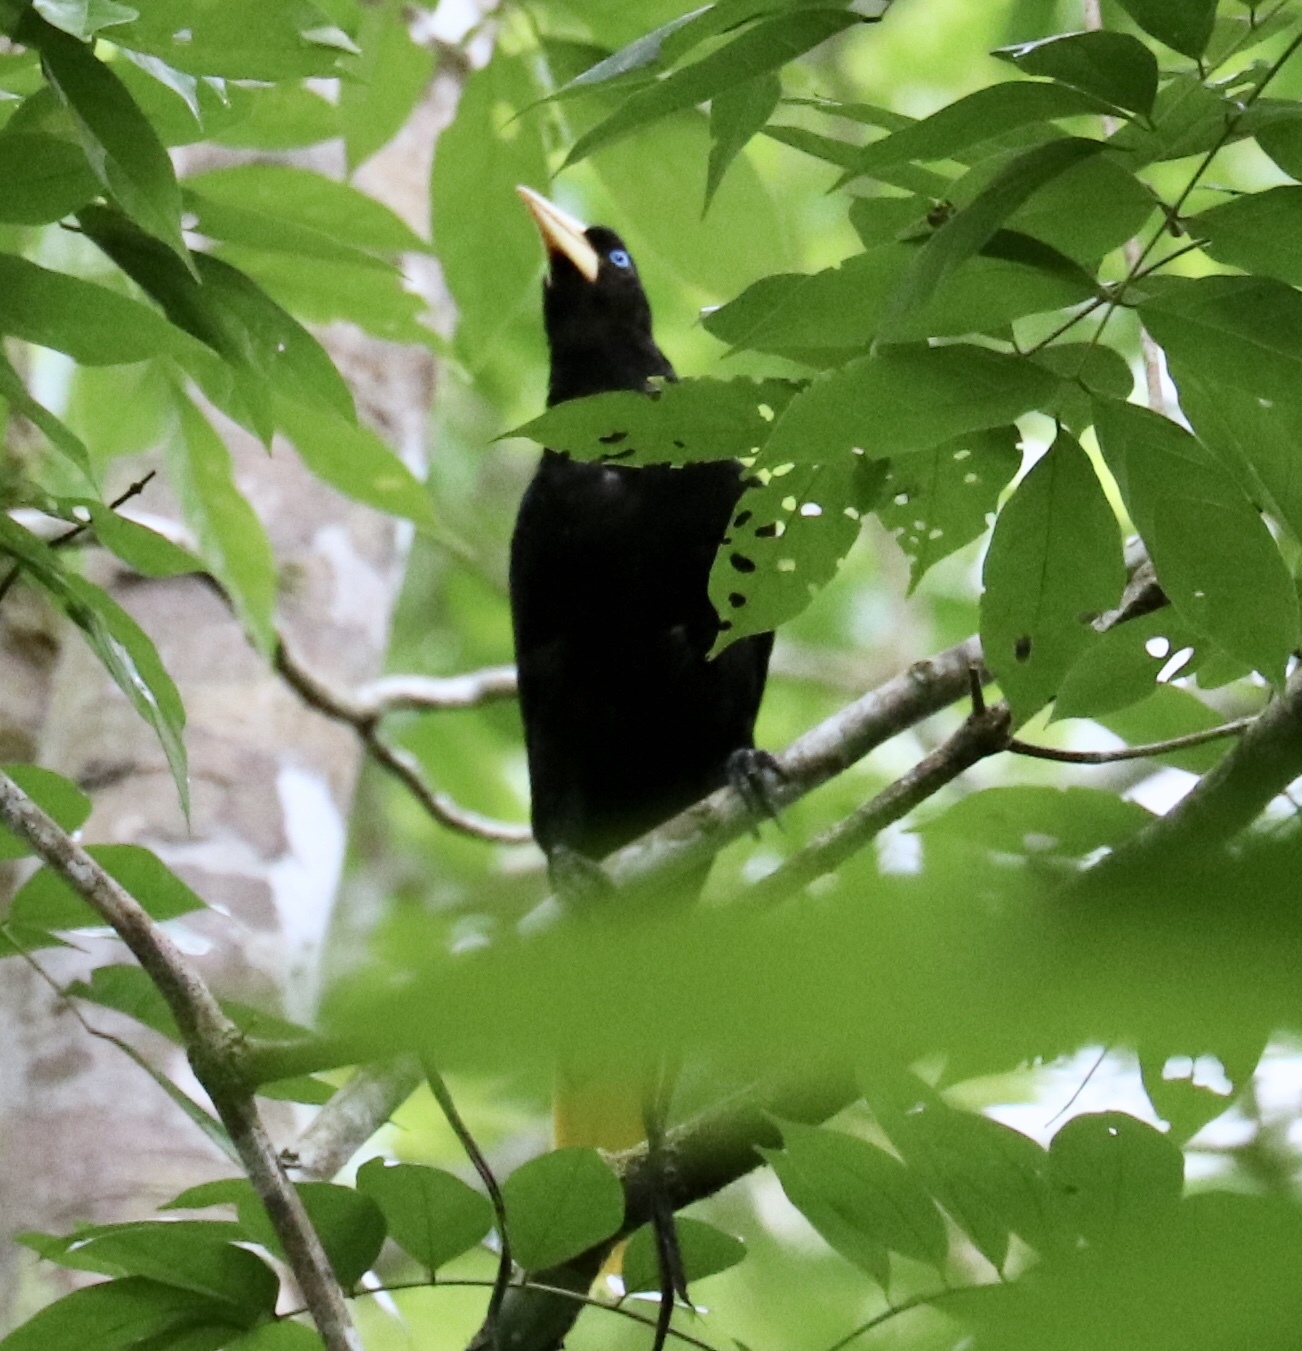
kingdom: Animalia
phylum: Chordata
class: Aves
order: Passeriformes
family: Icteridae
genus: Psarocolius
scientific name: Psarocolius decumanus
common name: Crested oropendola
